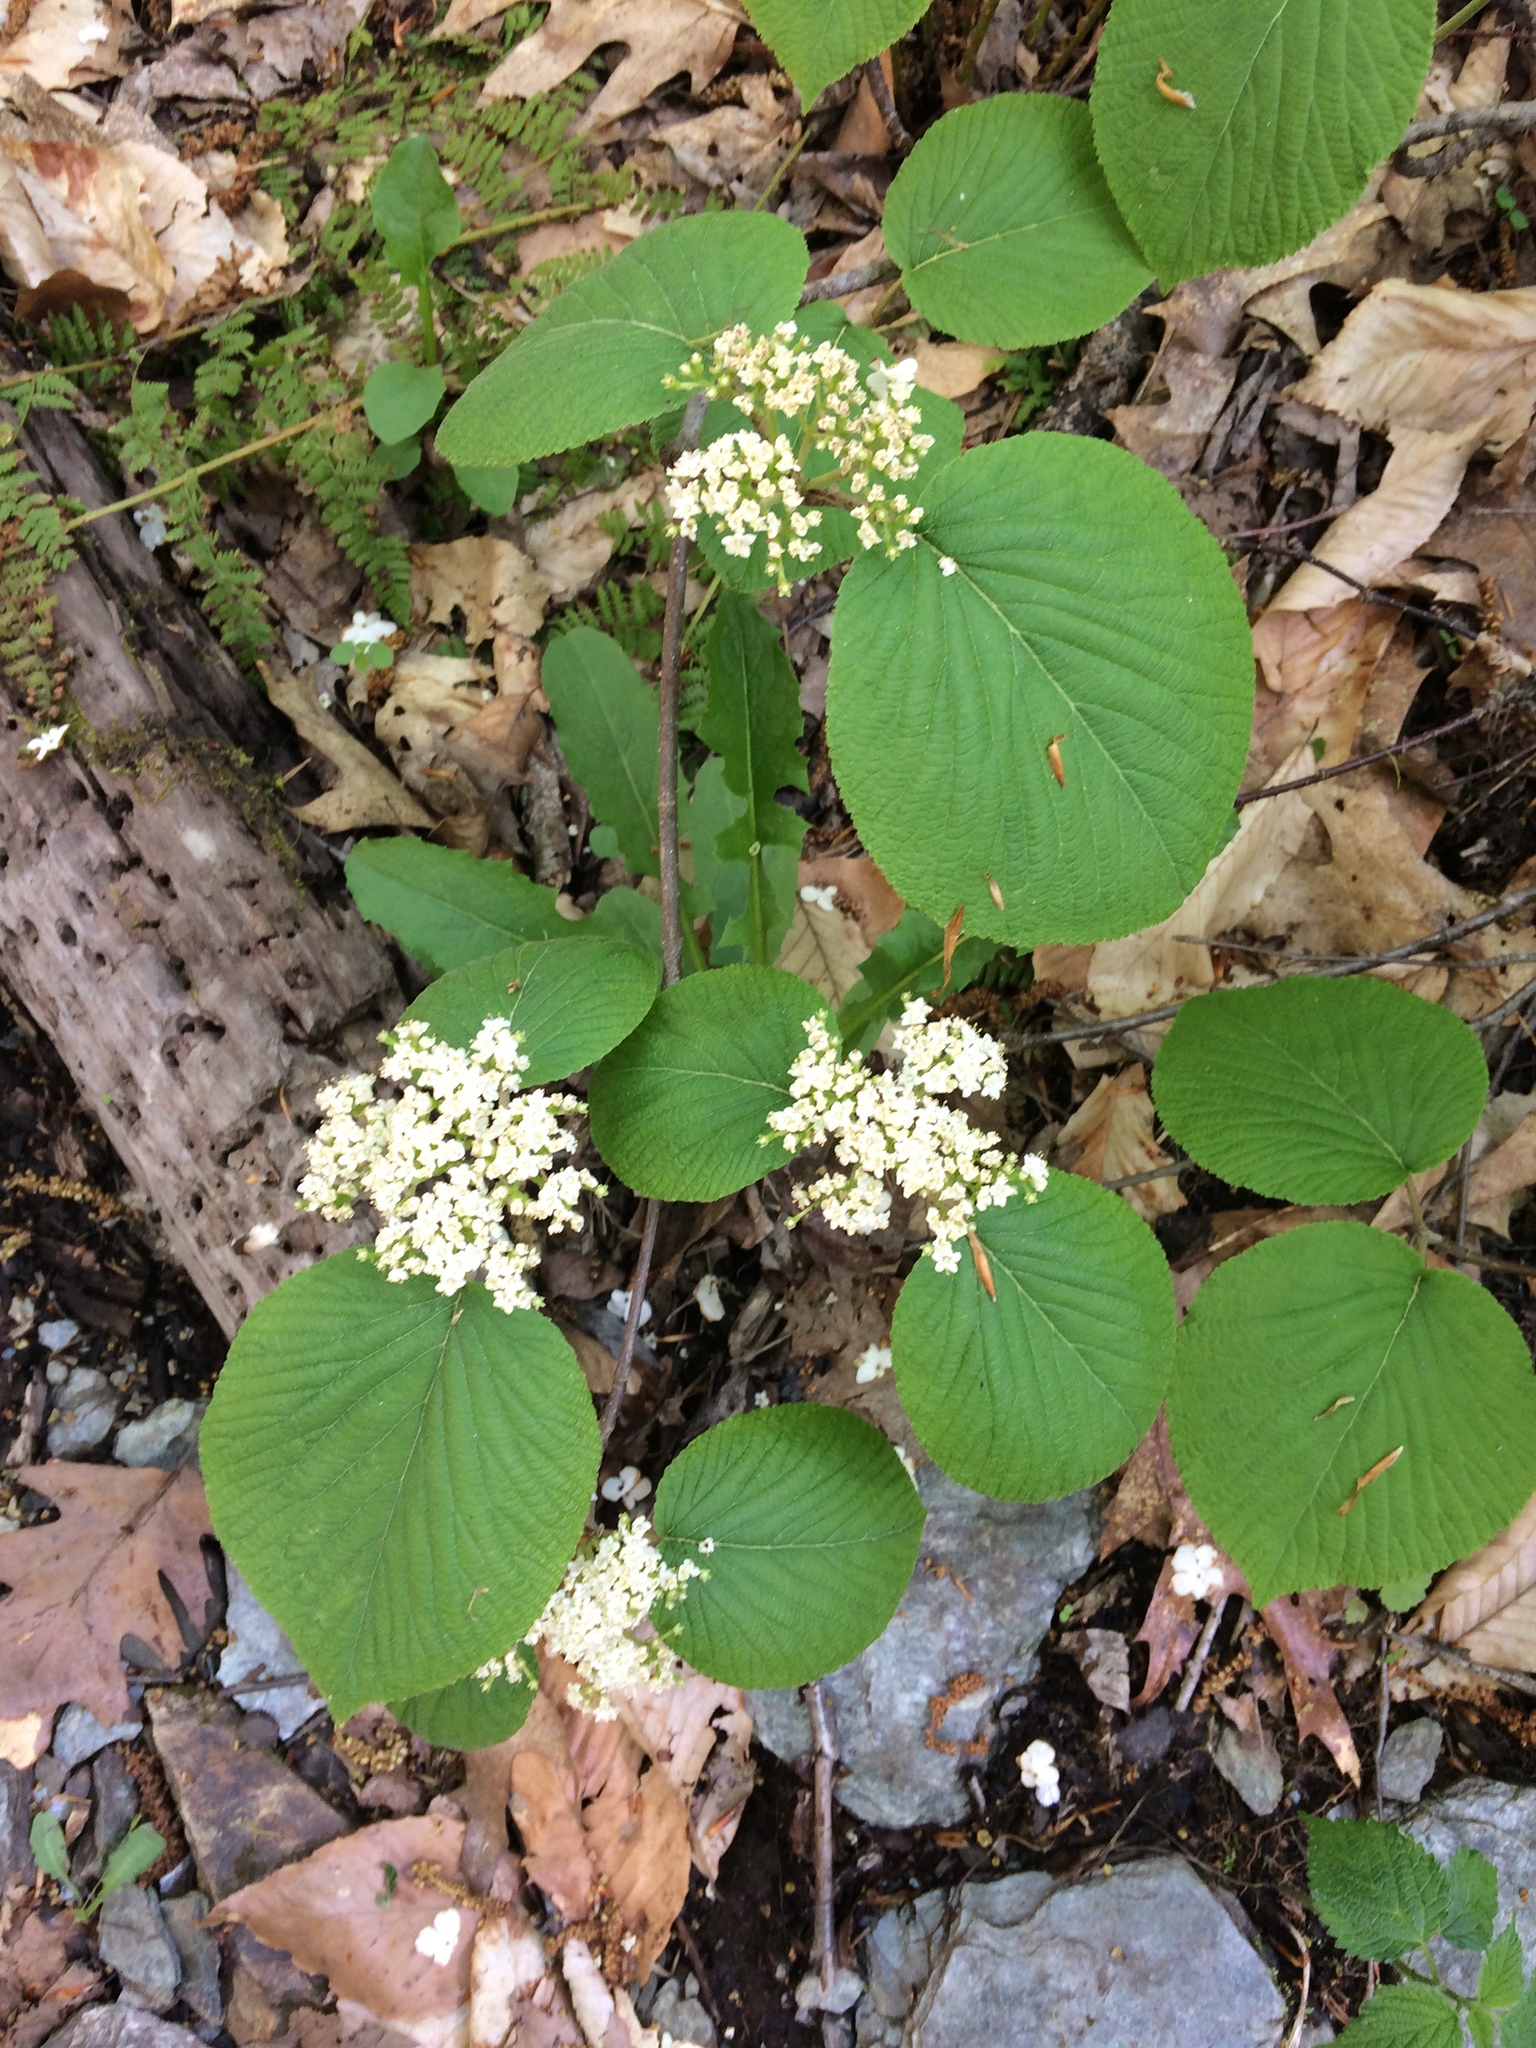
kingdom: Plantae
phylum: Tracheophyta
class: Magnoliopsida
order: Dipsacales
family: Viburnaceae
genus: Viburnum
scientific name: Viburnum lantanoides
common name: Hobblebush
